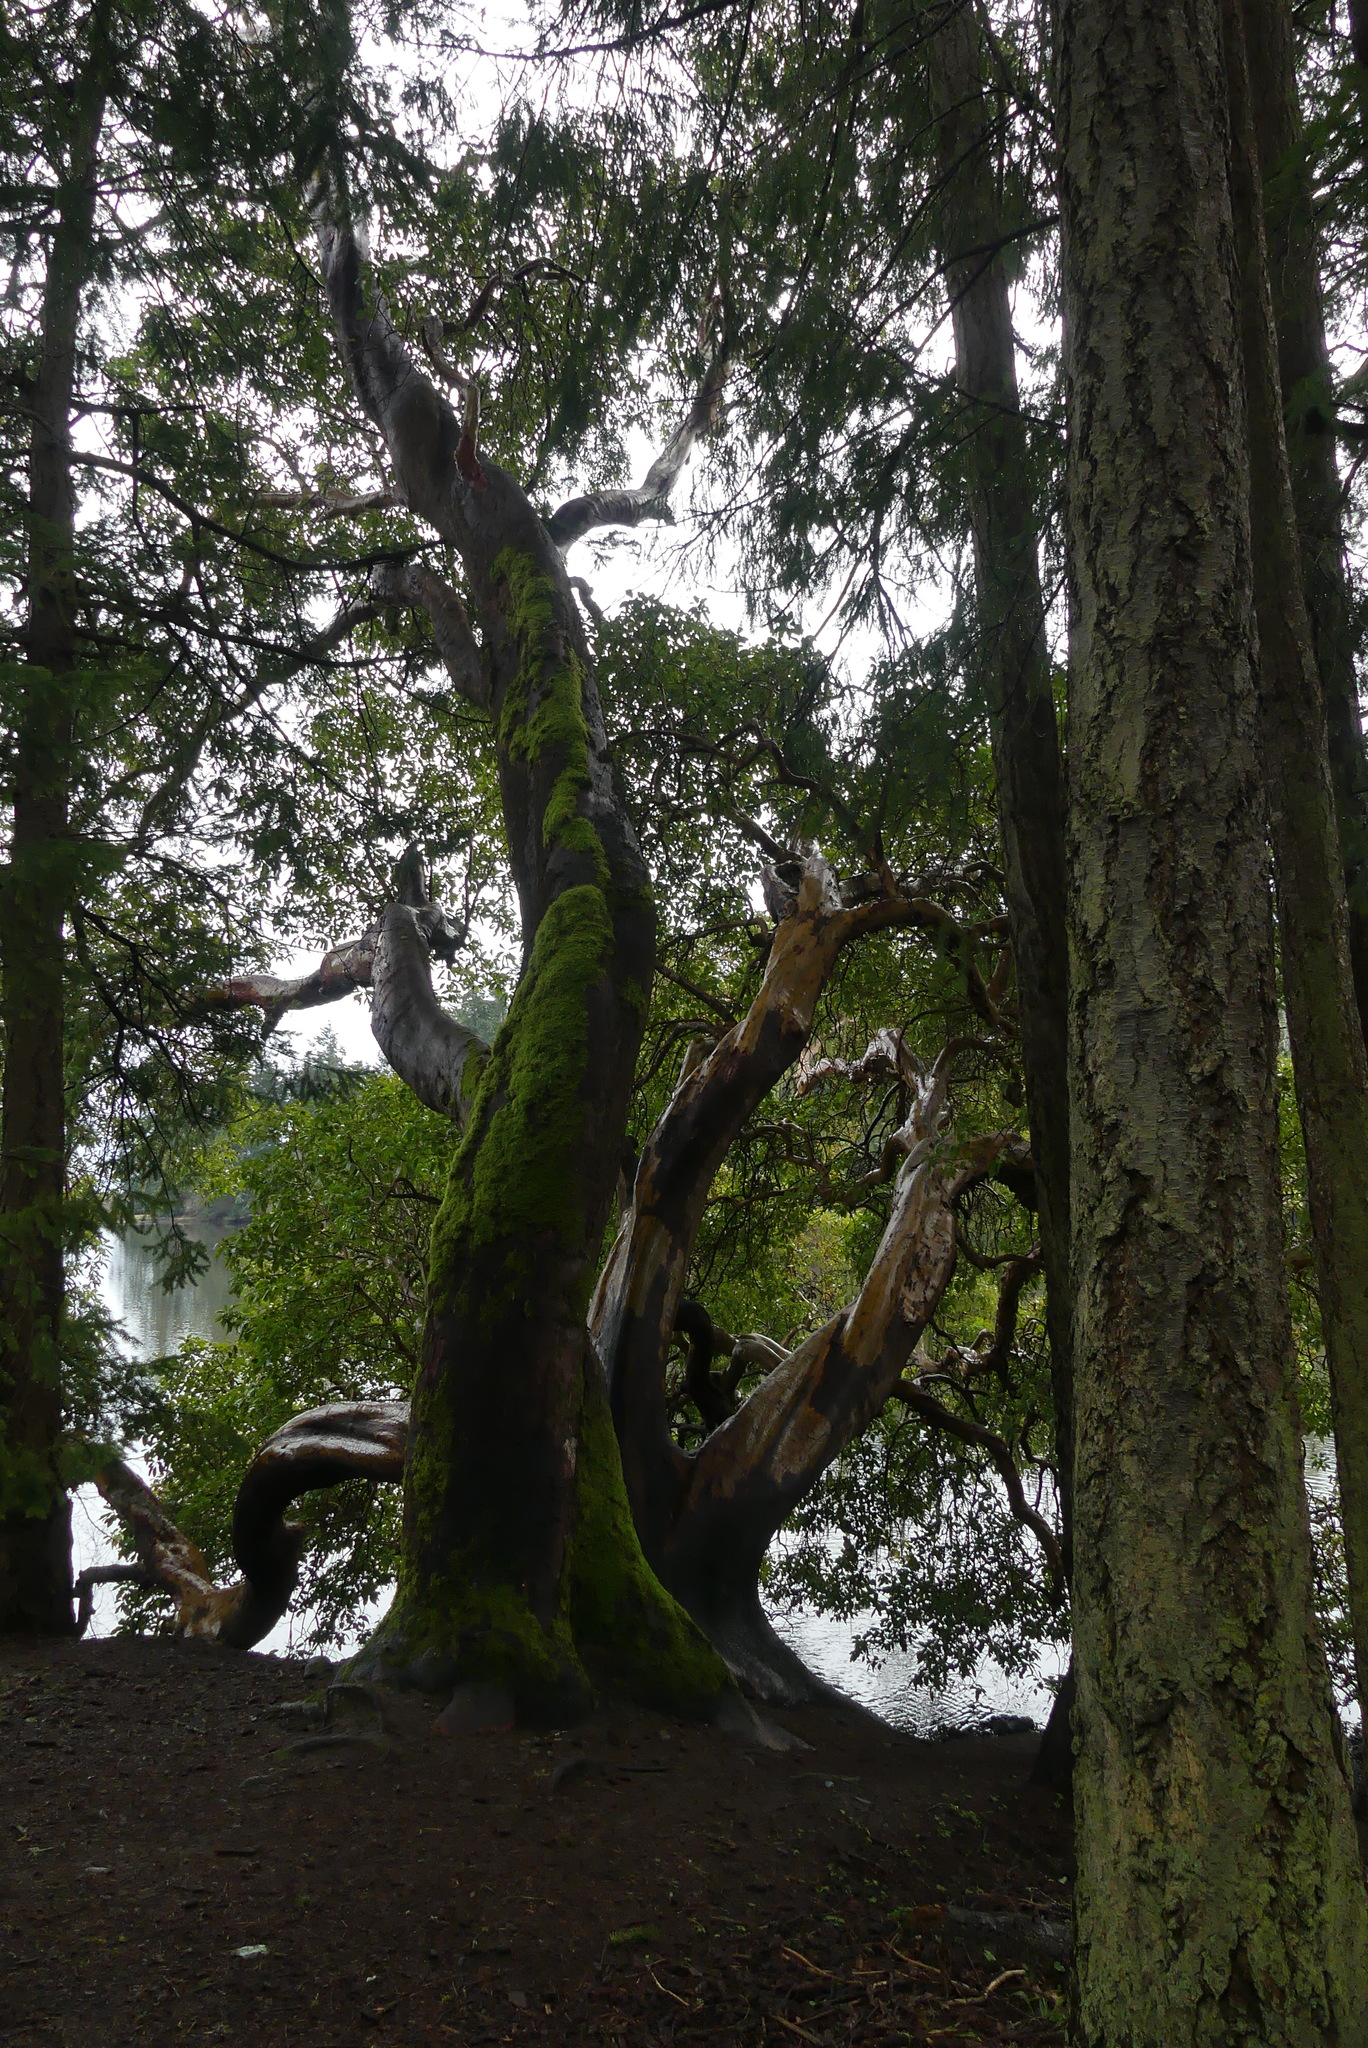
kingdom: Plantae
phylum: Tracheophyta
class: Magnoliopsida
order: Ericales
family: Ericaceae
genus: Arbutus
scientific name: Arbutus menziesii
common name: Pacific madrone
